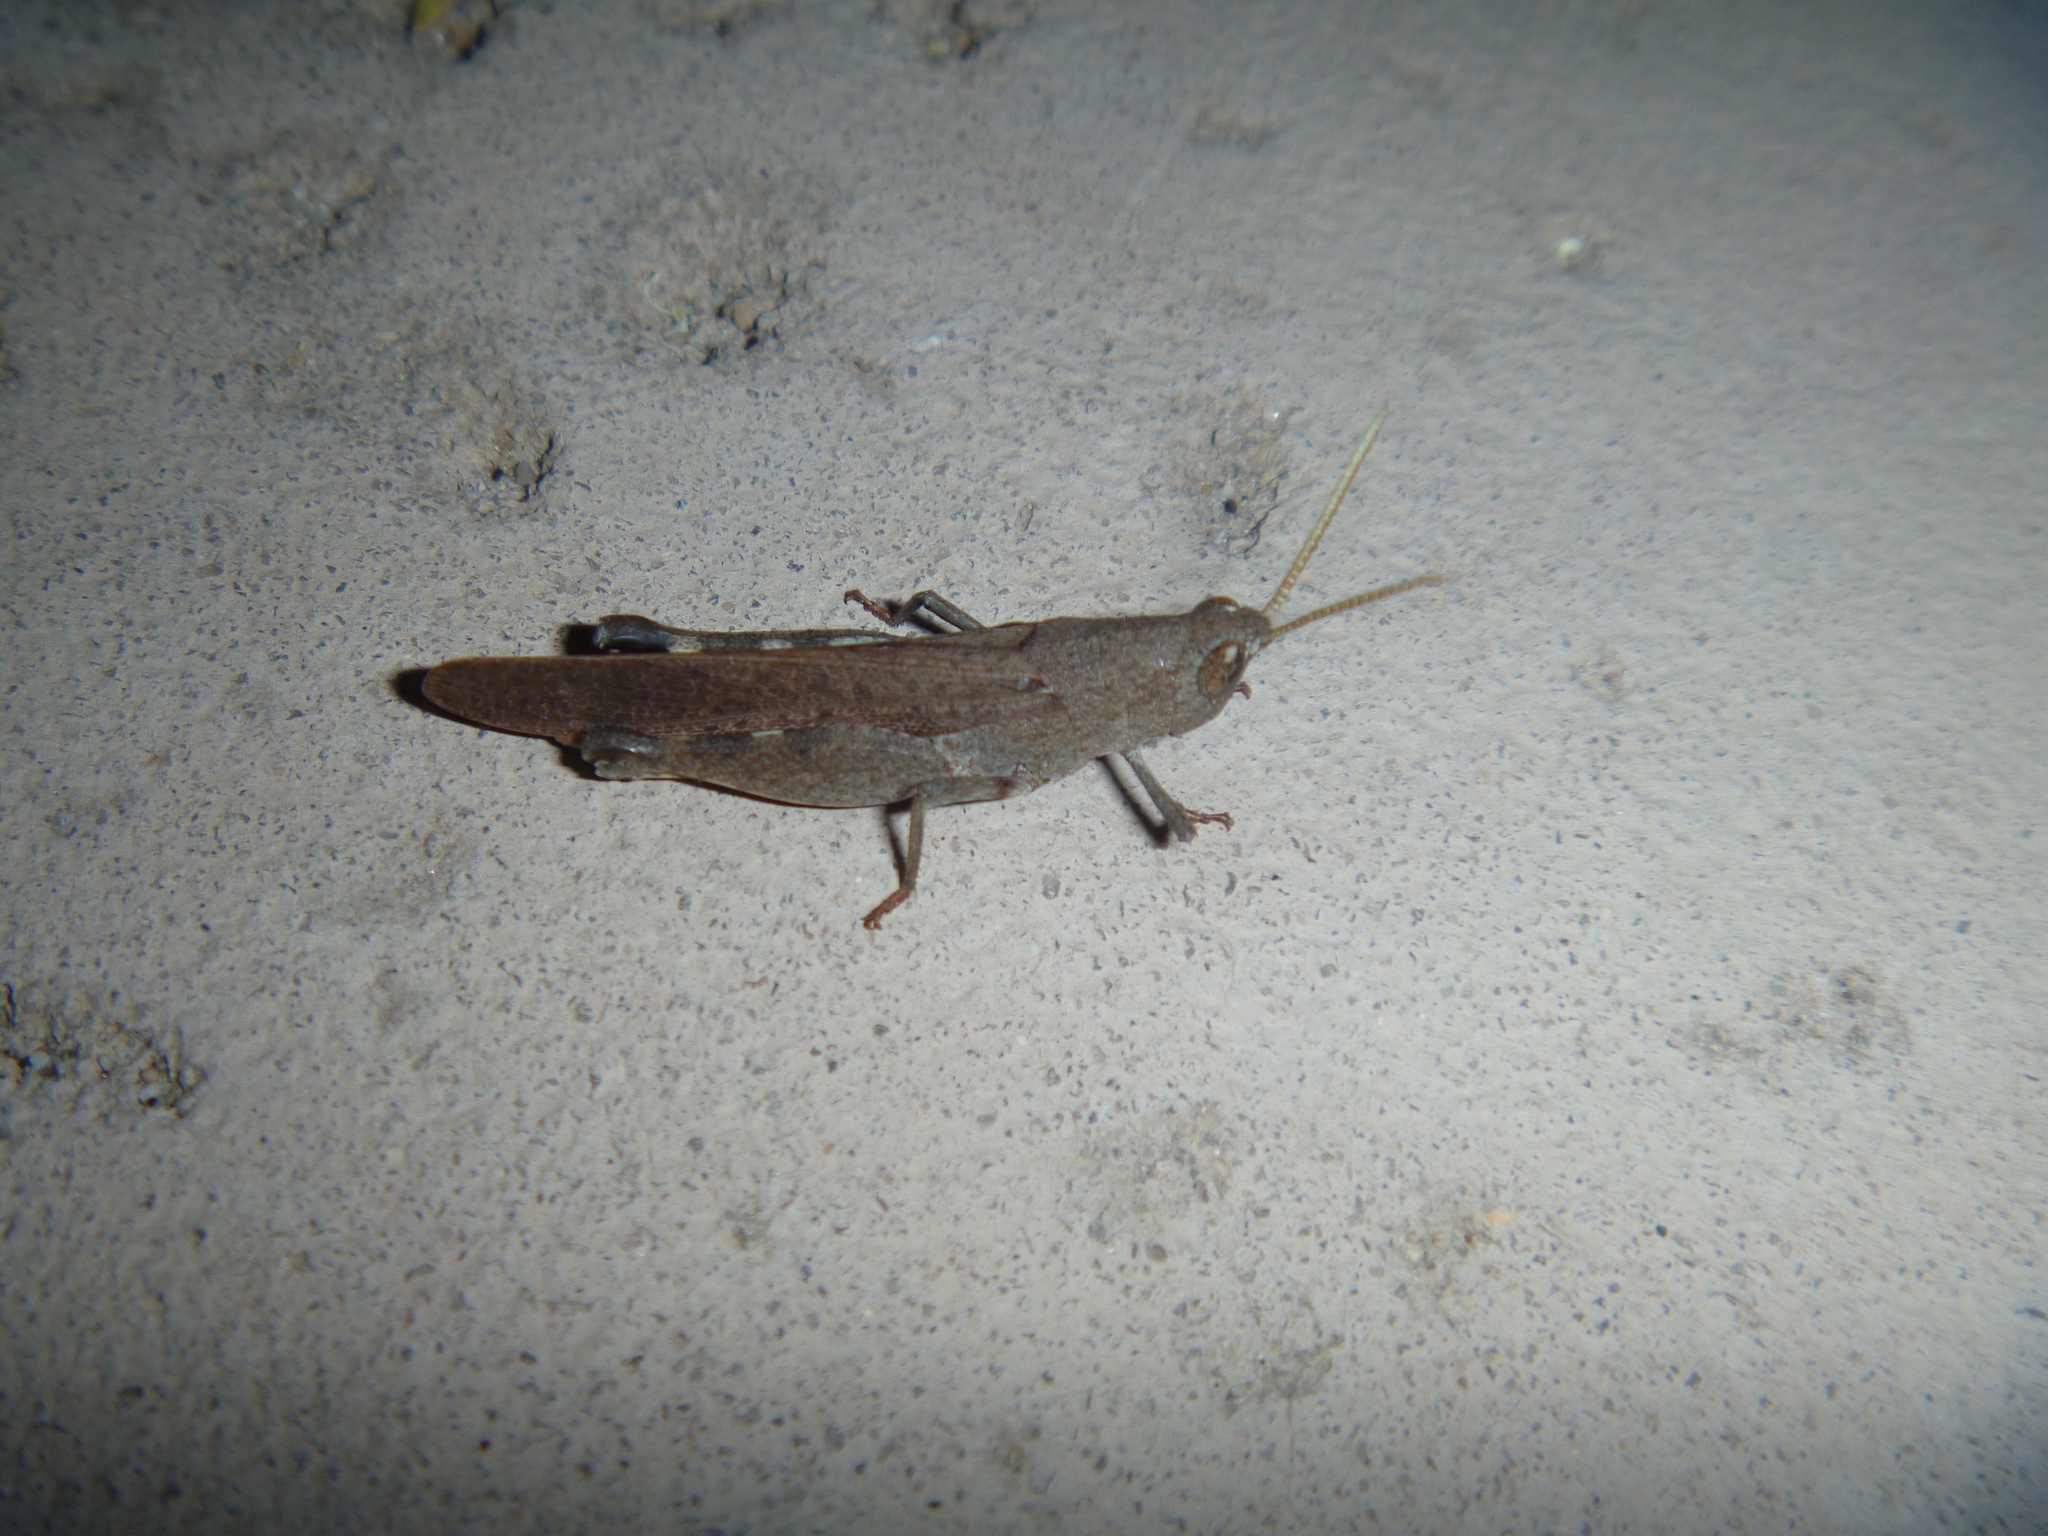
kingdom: Animalia
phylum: Arthropoda
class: Insecta
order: Orthoptera
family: Acrididae
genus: Goniaea
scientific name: Goniaea opomaloides
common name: Mimetic gumleaf grasshopper
